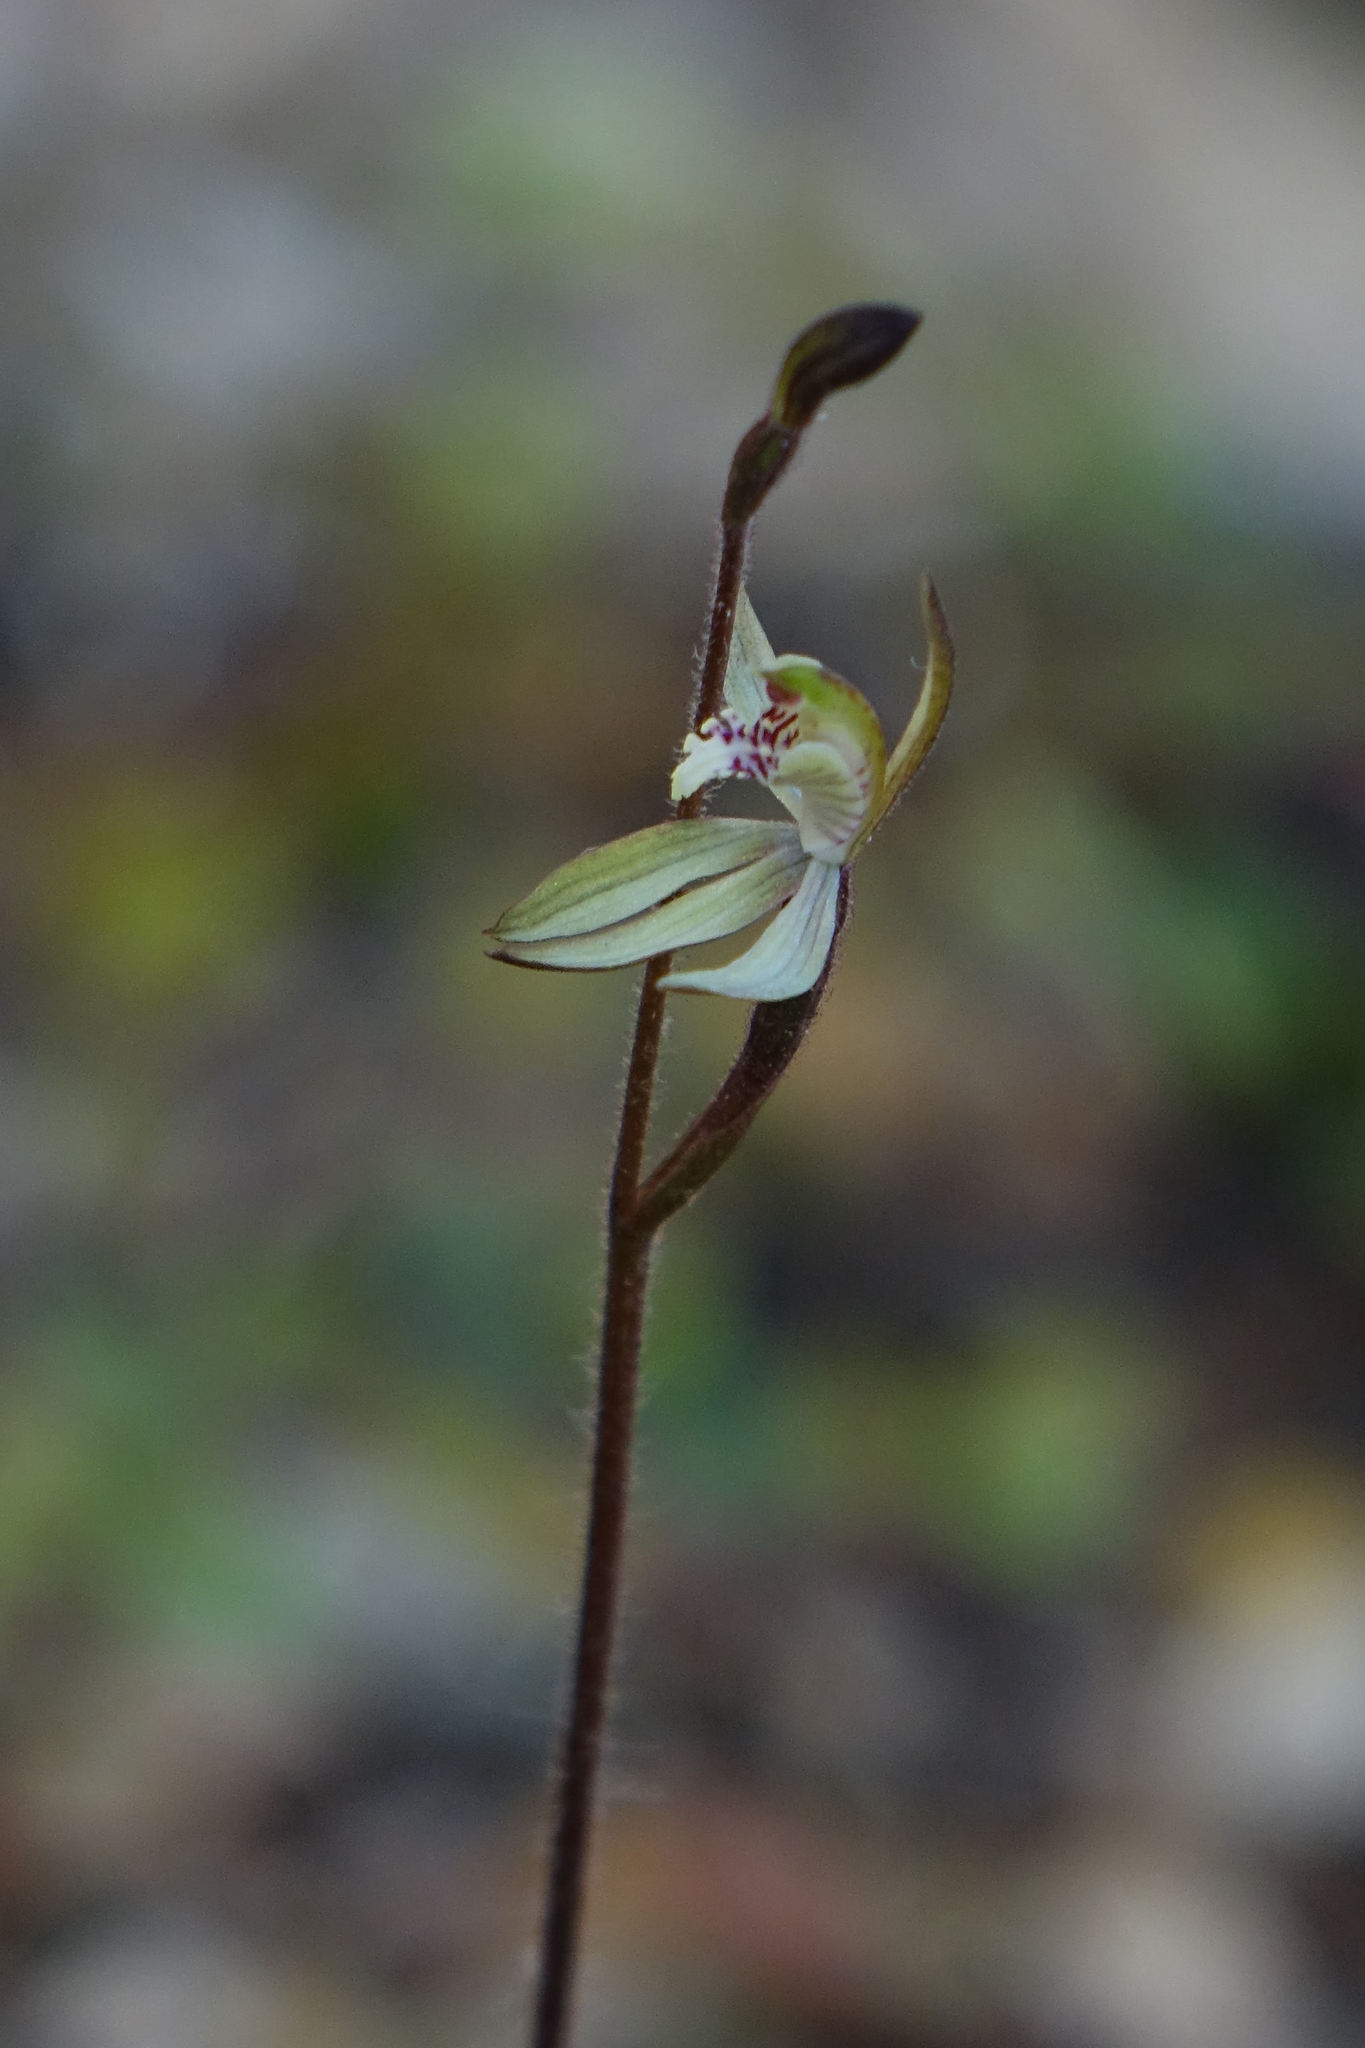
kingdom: Plantae
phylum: Tracheophyta
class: Liliopsida
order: Asparagales
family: Orchidaceae
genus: Caladenia
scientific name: Caladenia chlorostyla
